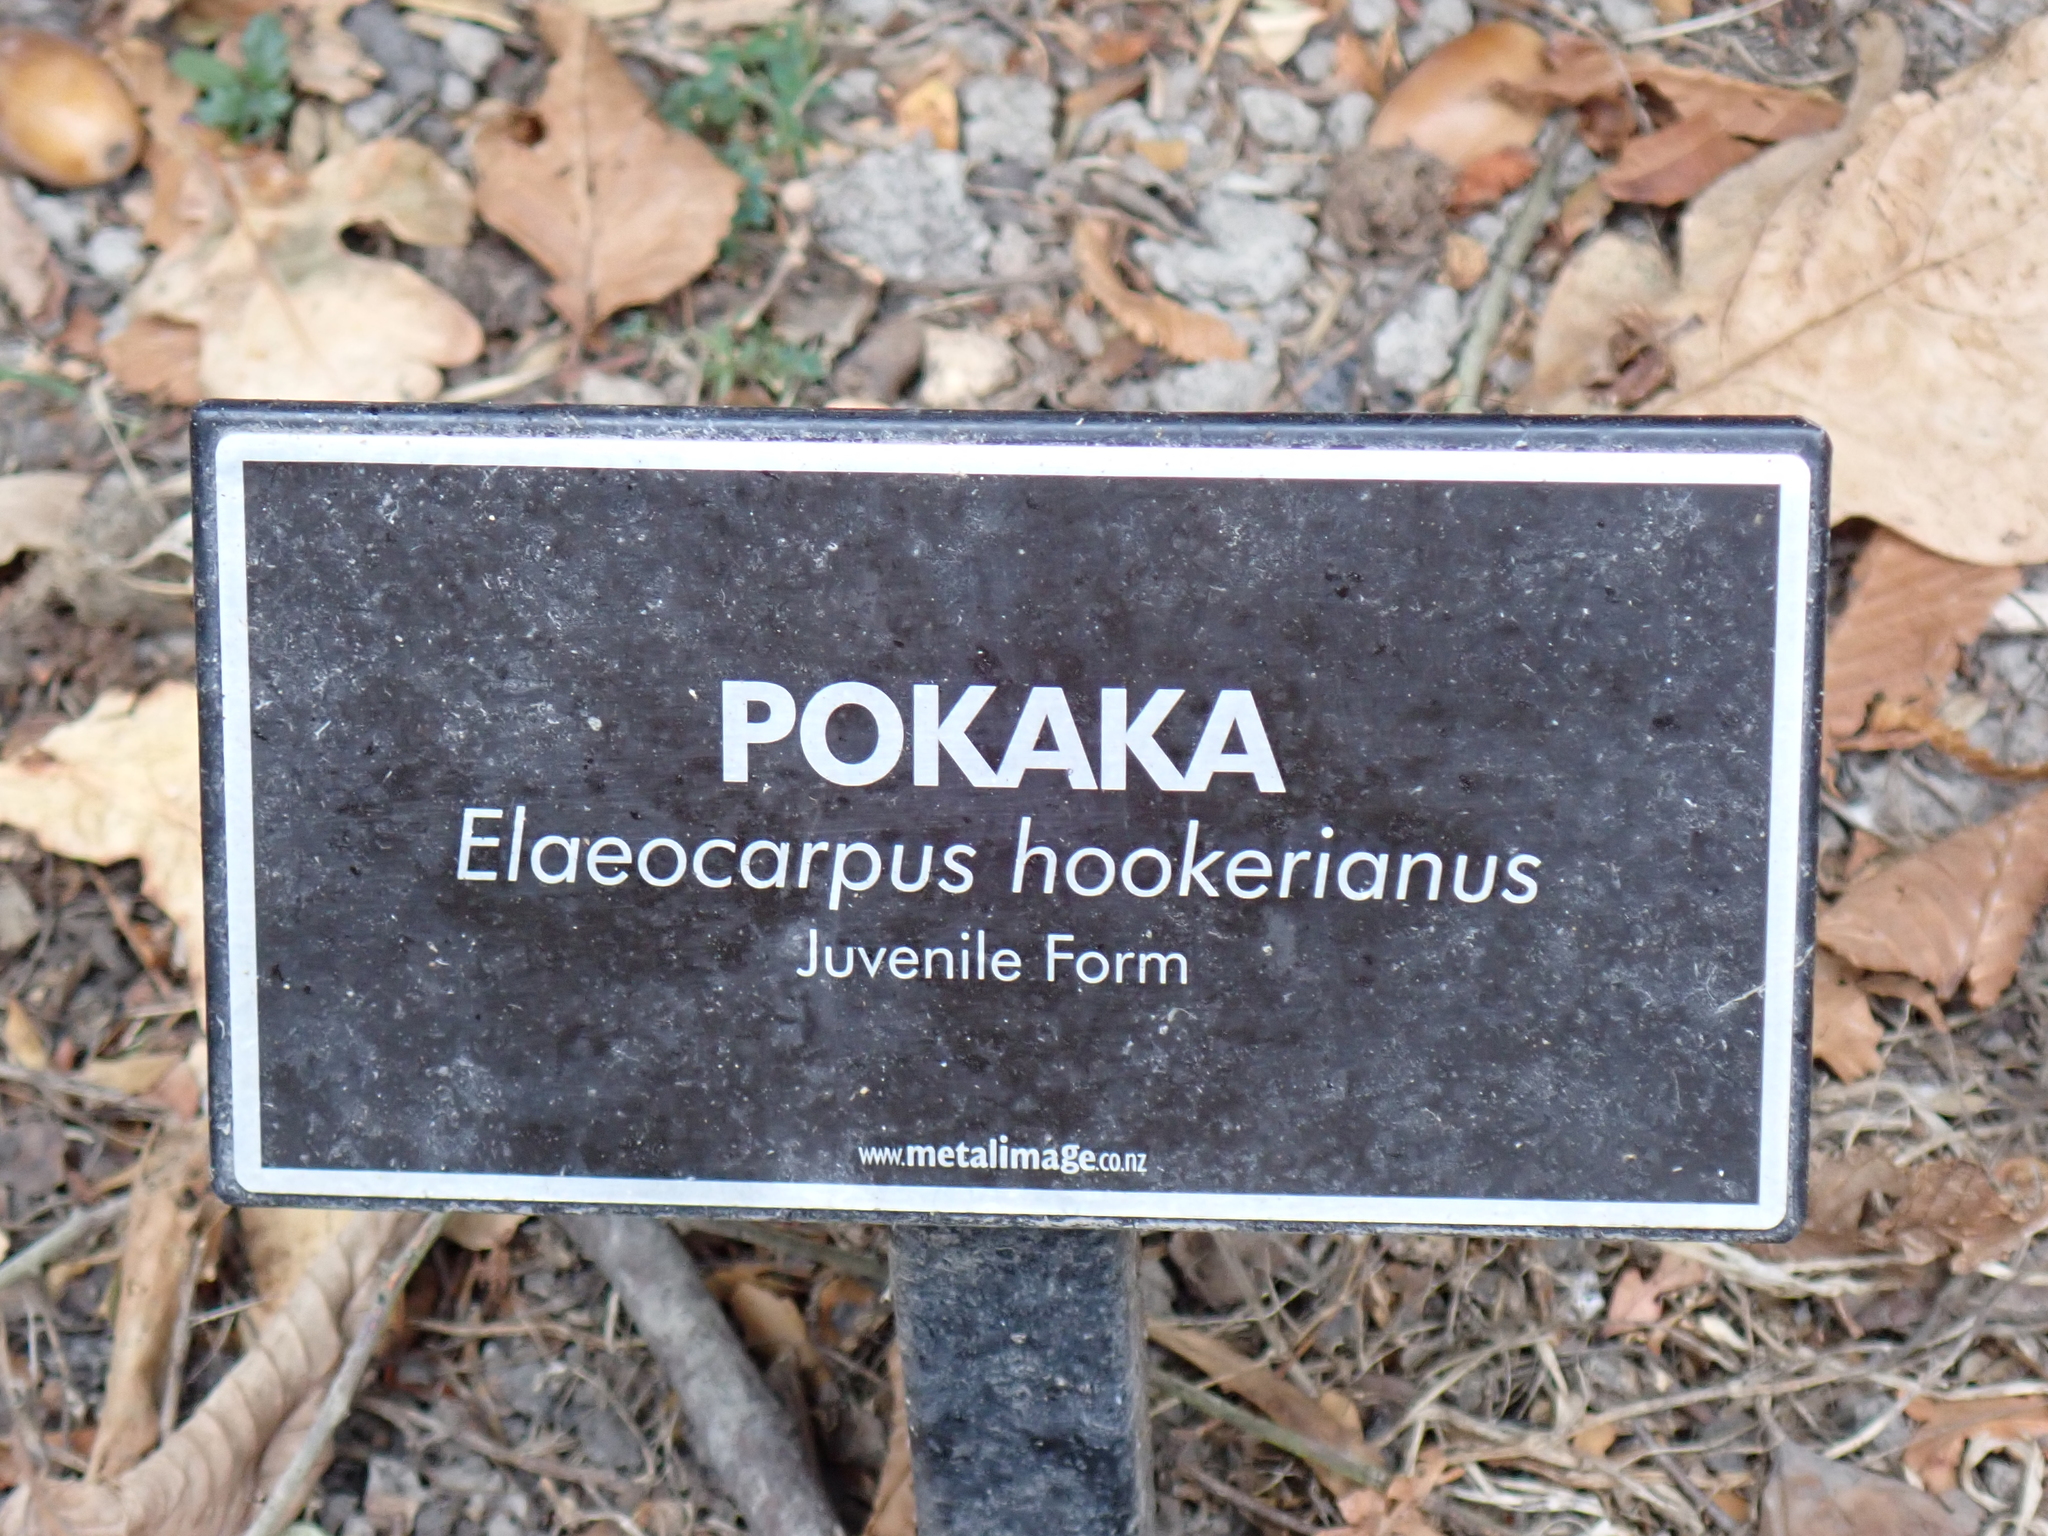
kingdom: Plantae
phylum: Tracheophyta
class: Magnoliopsida
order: Oxalidales
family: Elaeocarpaceae
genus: Elaeocarpus
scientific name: Elaeocarpus hookerianus
